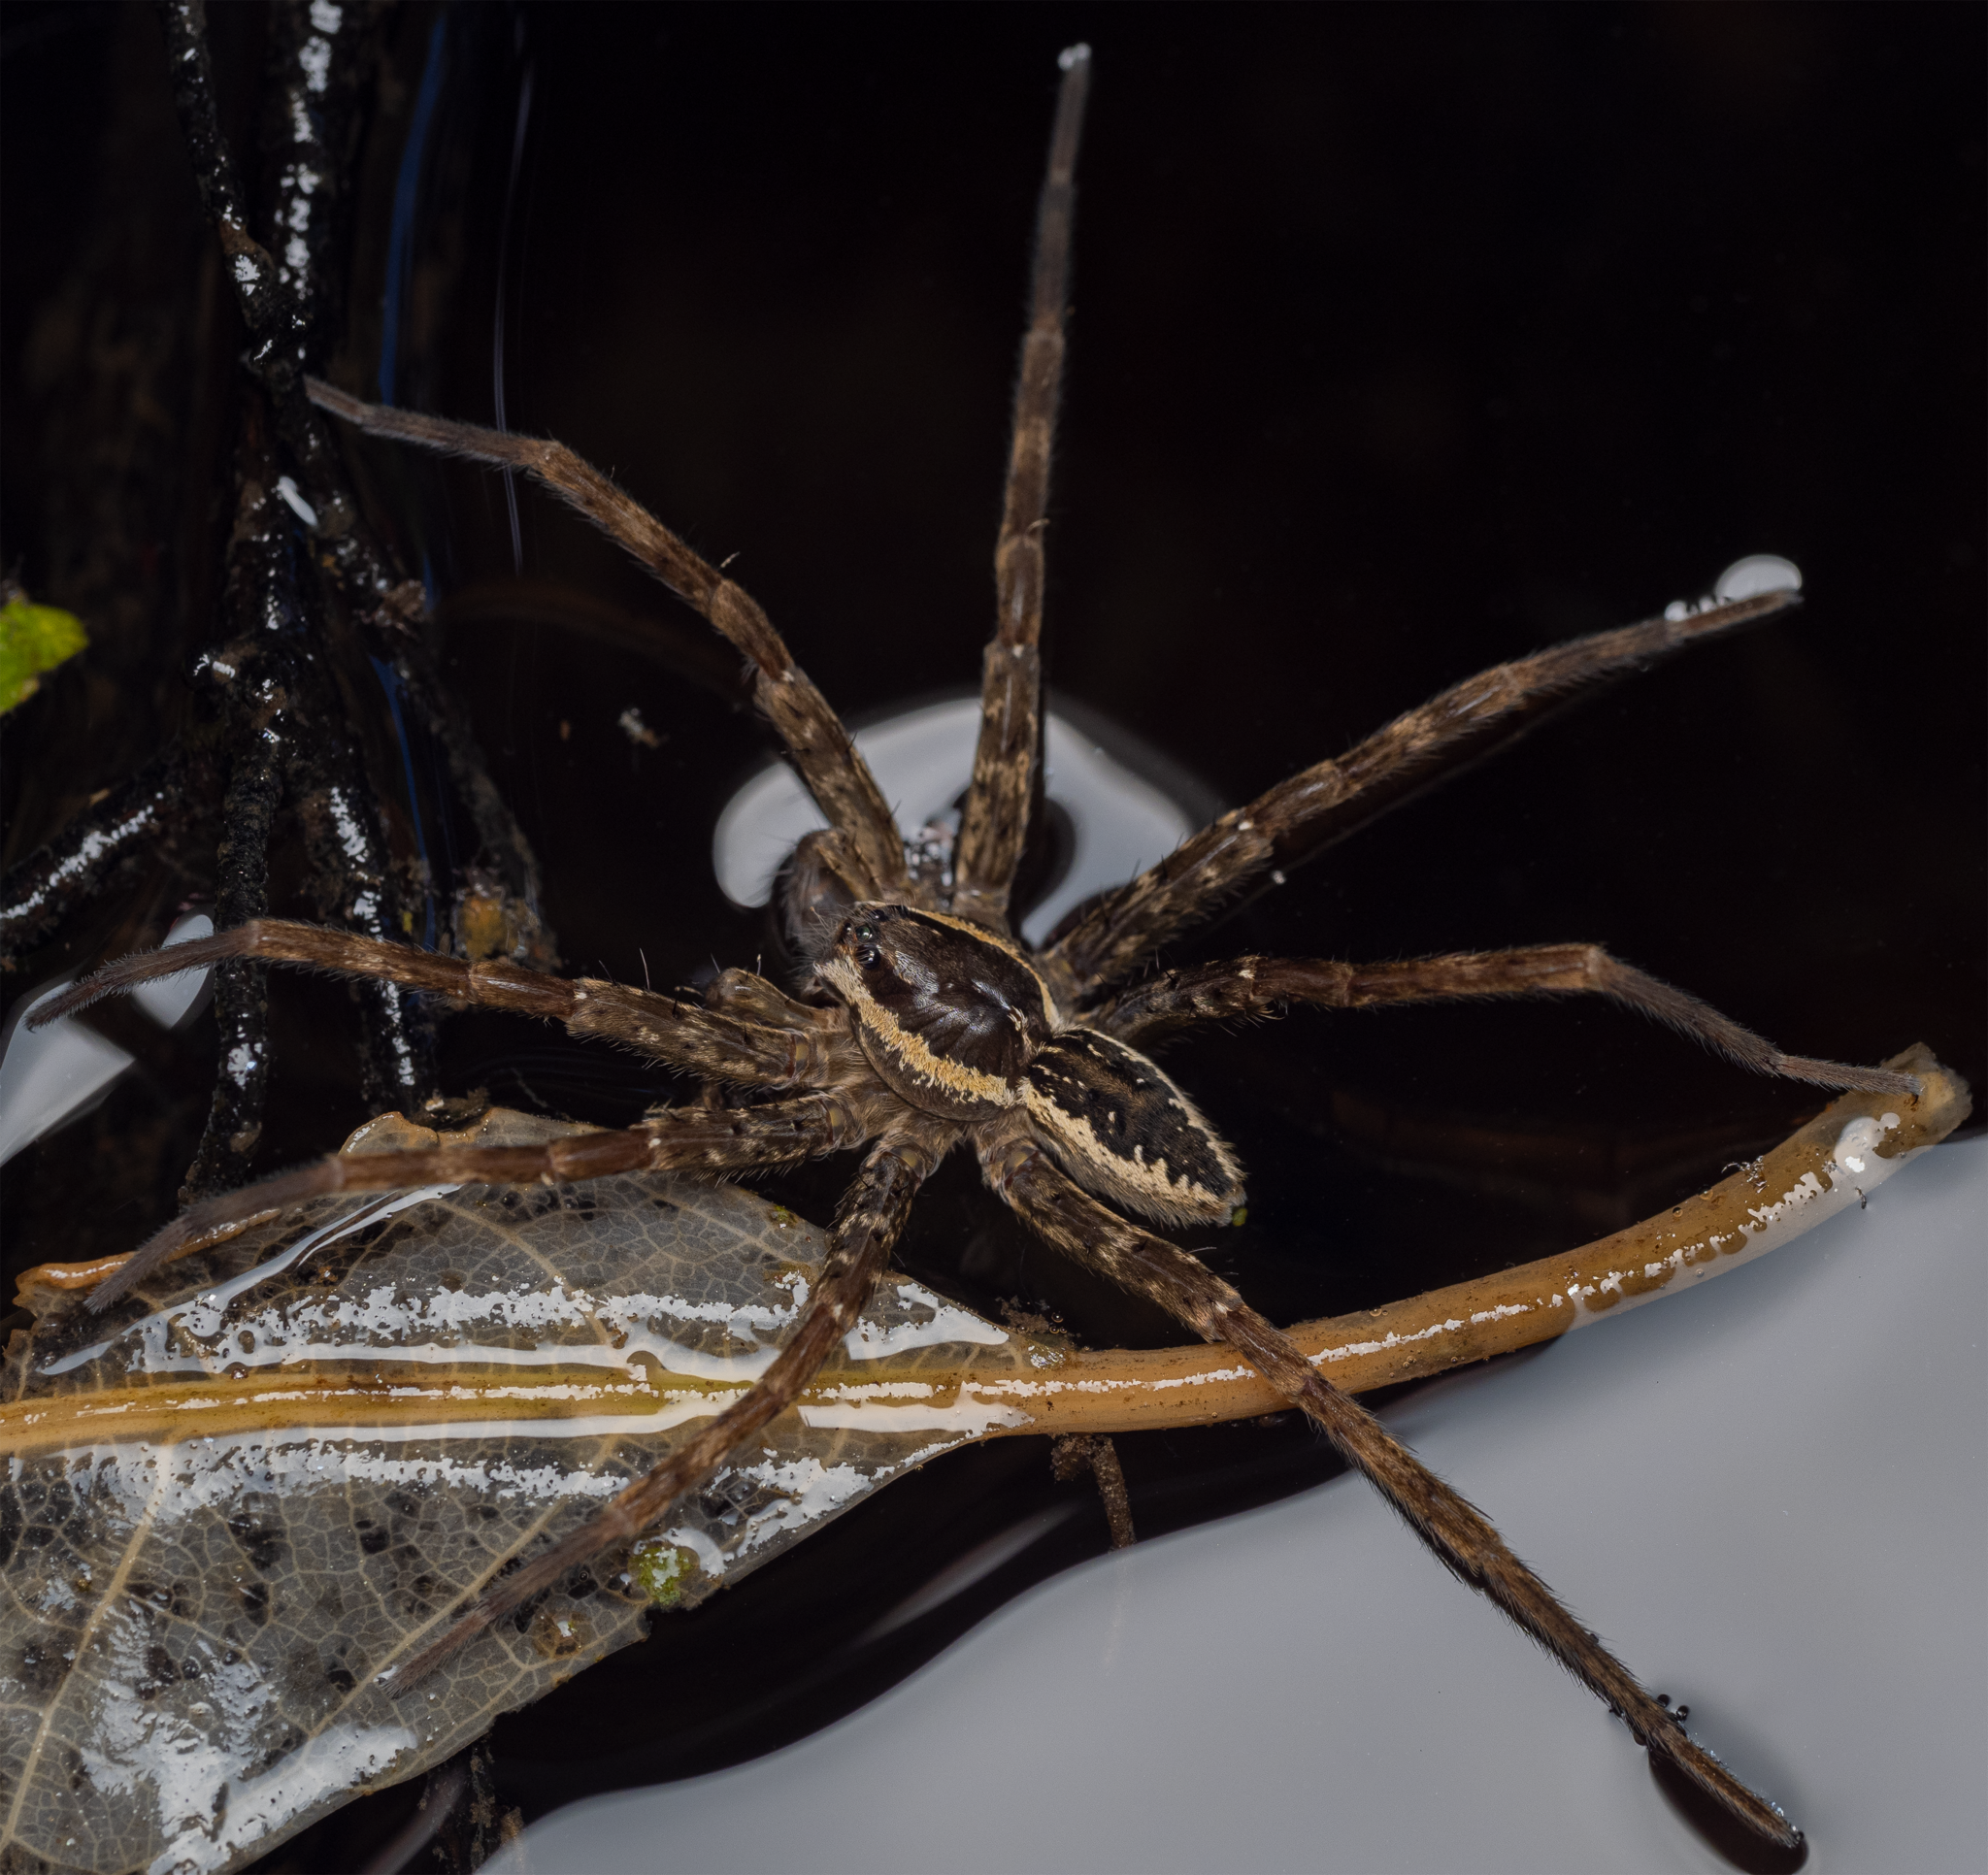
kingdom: Animalia
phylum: Arthropoda
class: Arachnida
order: Araneae
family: Pisauridae
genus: Dolomedes
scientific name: Dolomedes dondalei
